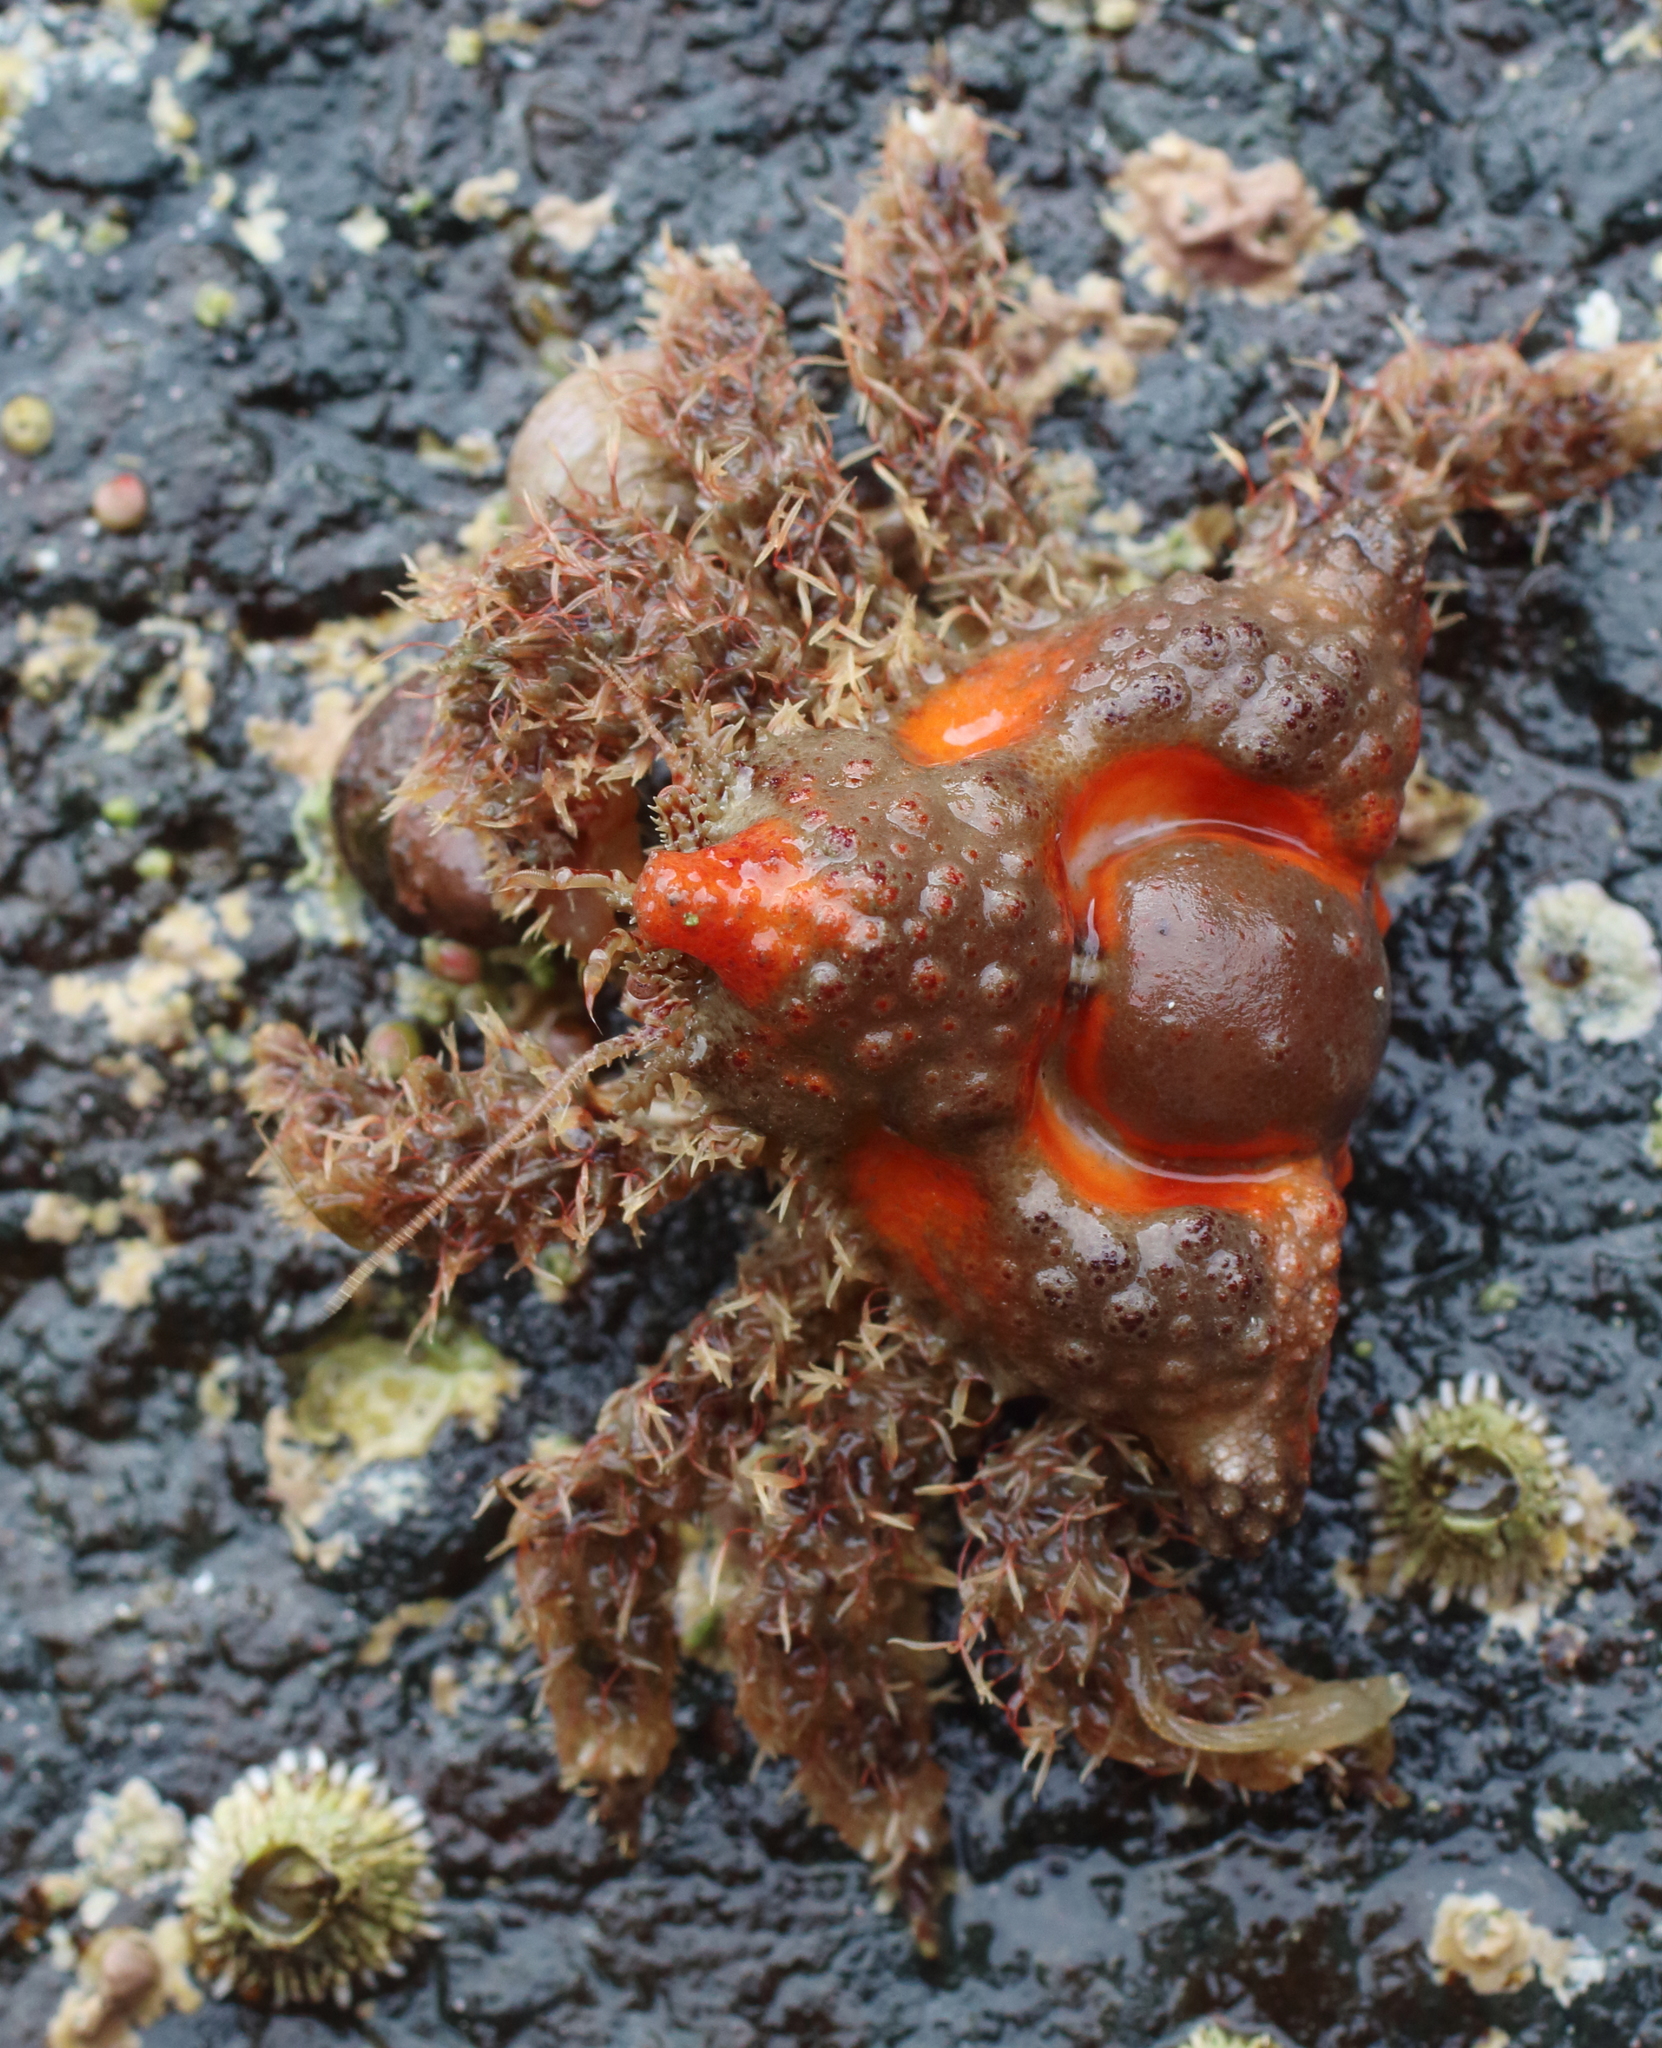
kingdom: Animalia
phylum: Arthropoda
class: Malacostraca
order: Decapoda
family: Lithodidae
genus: Rhinolithodes
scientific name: Rhinolithodes wosnessenskii
